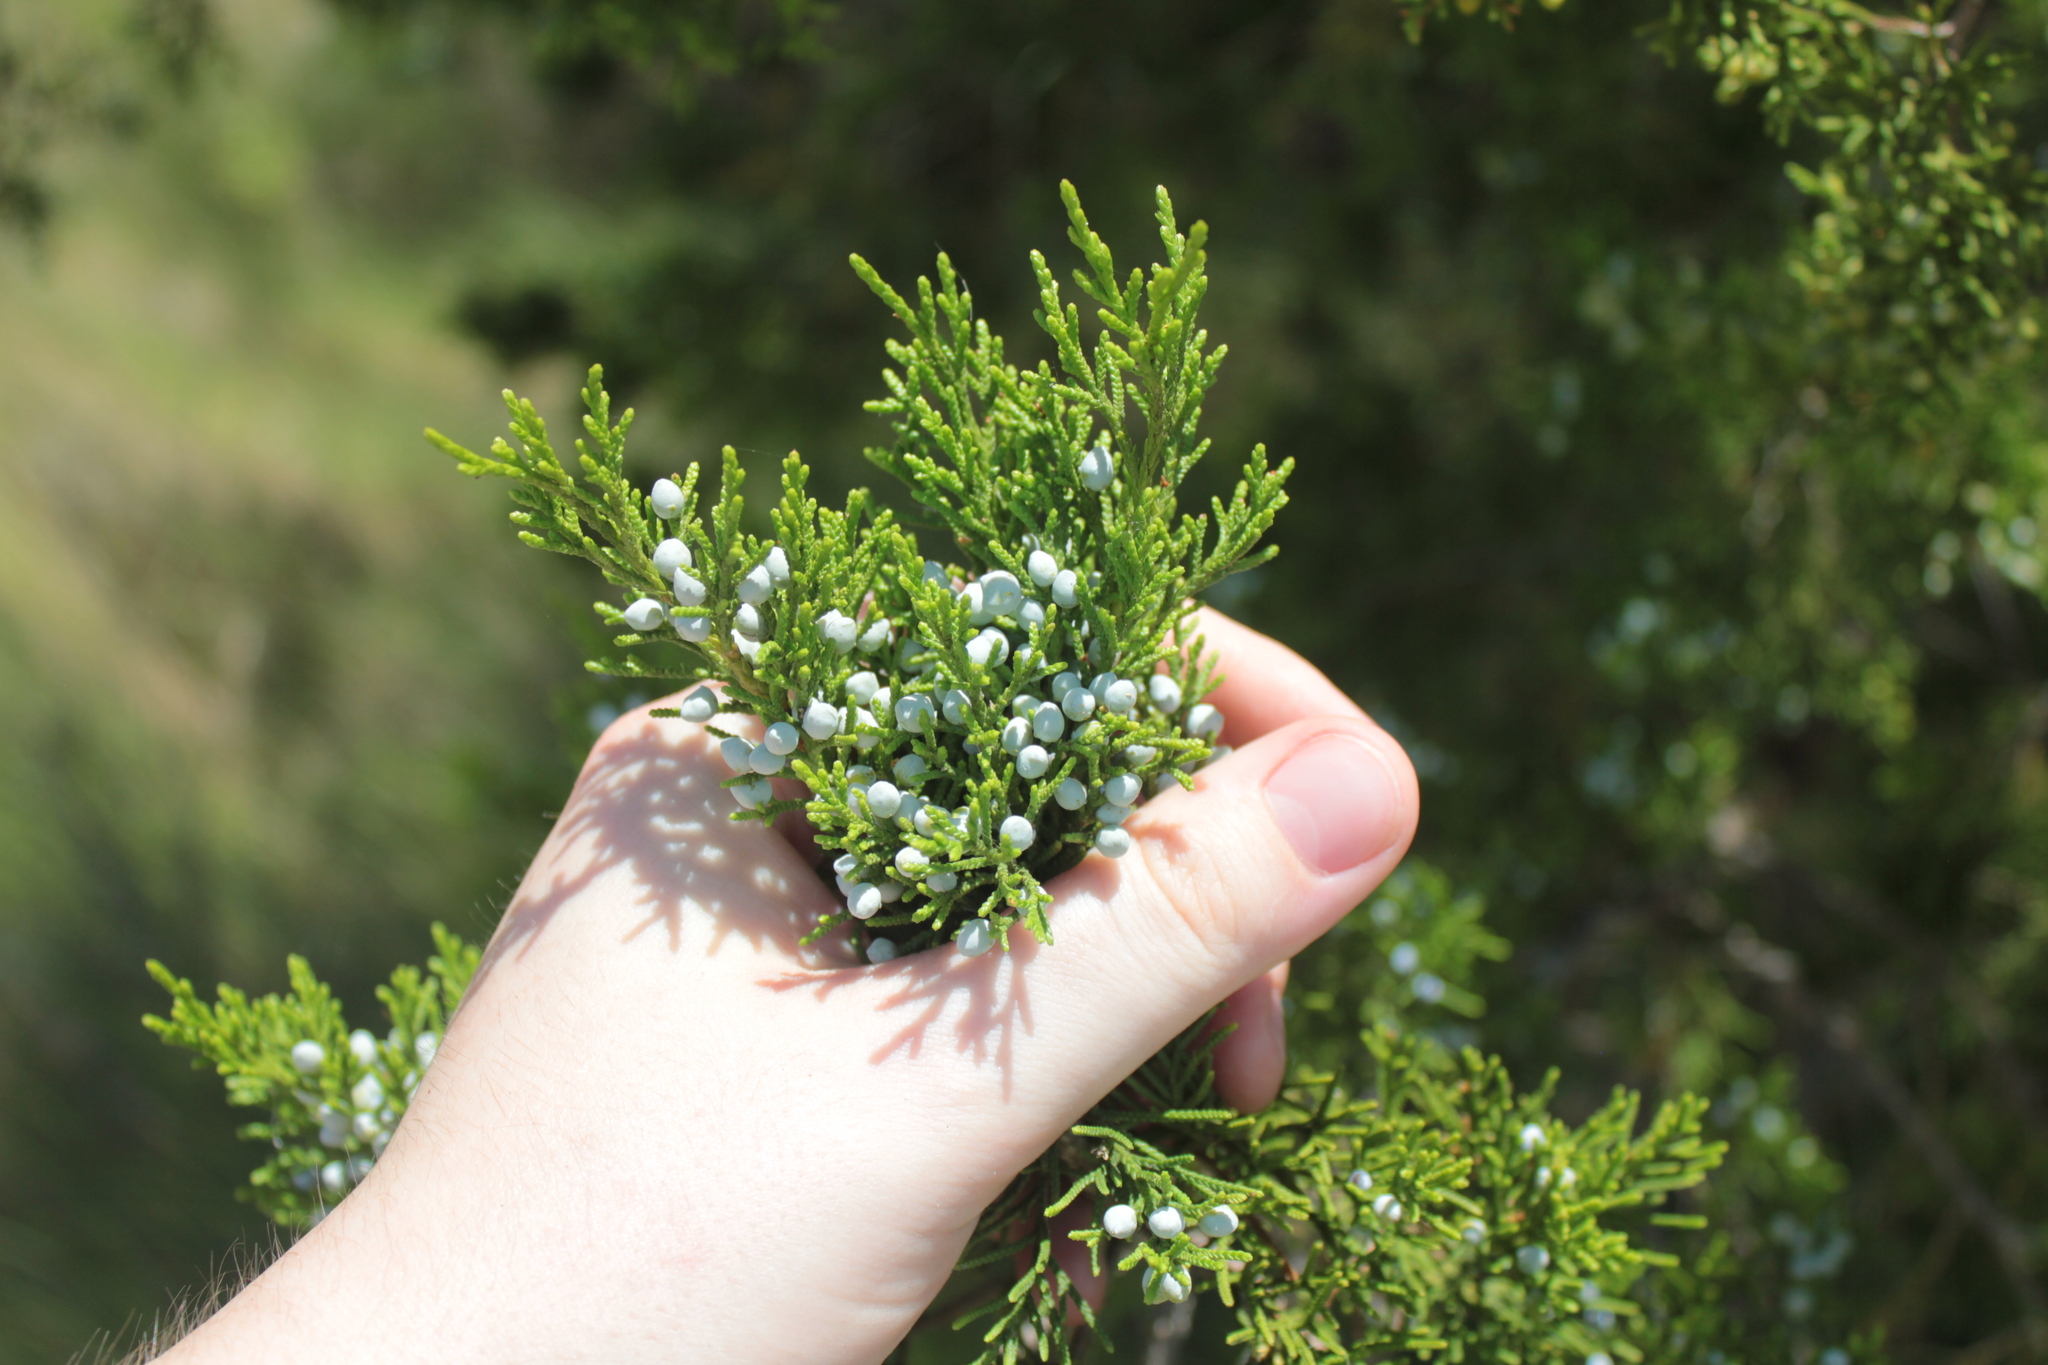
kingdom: Plantae
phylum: Tracheophyta
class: Pinopsida
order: Pinales
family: Cupressaceae
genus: Juniperus
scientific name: Juniperus virginiana
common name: Red juniper
